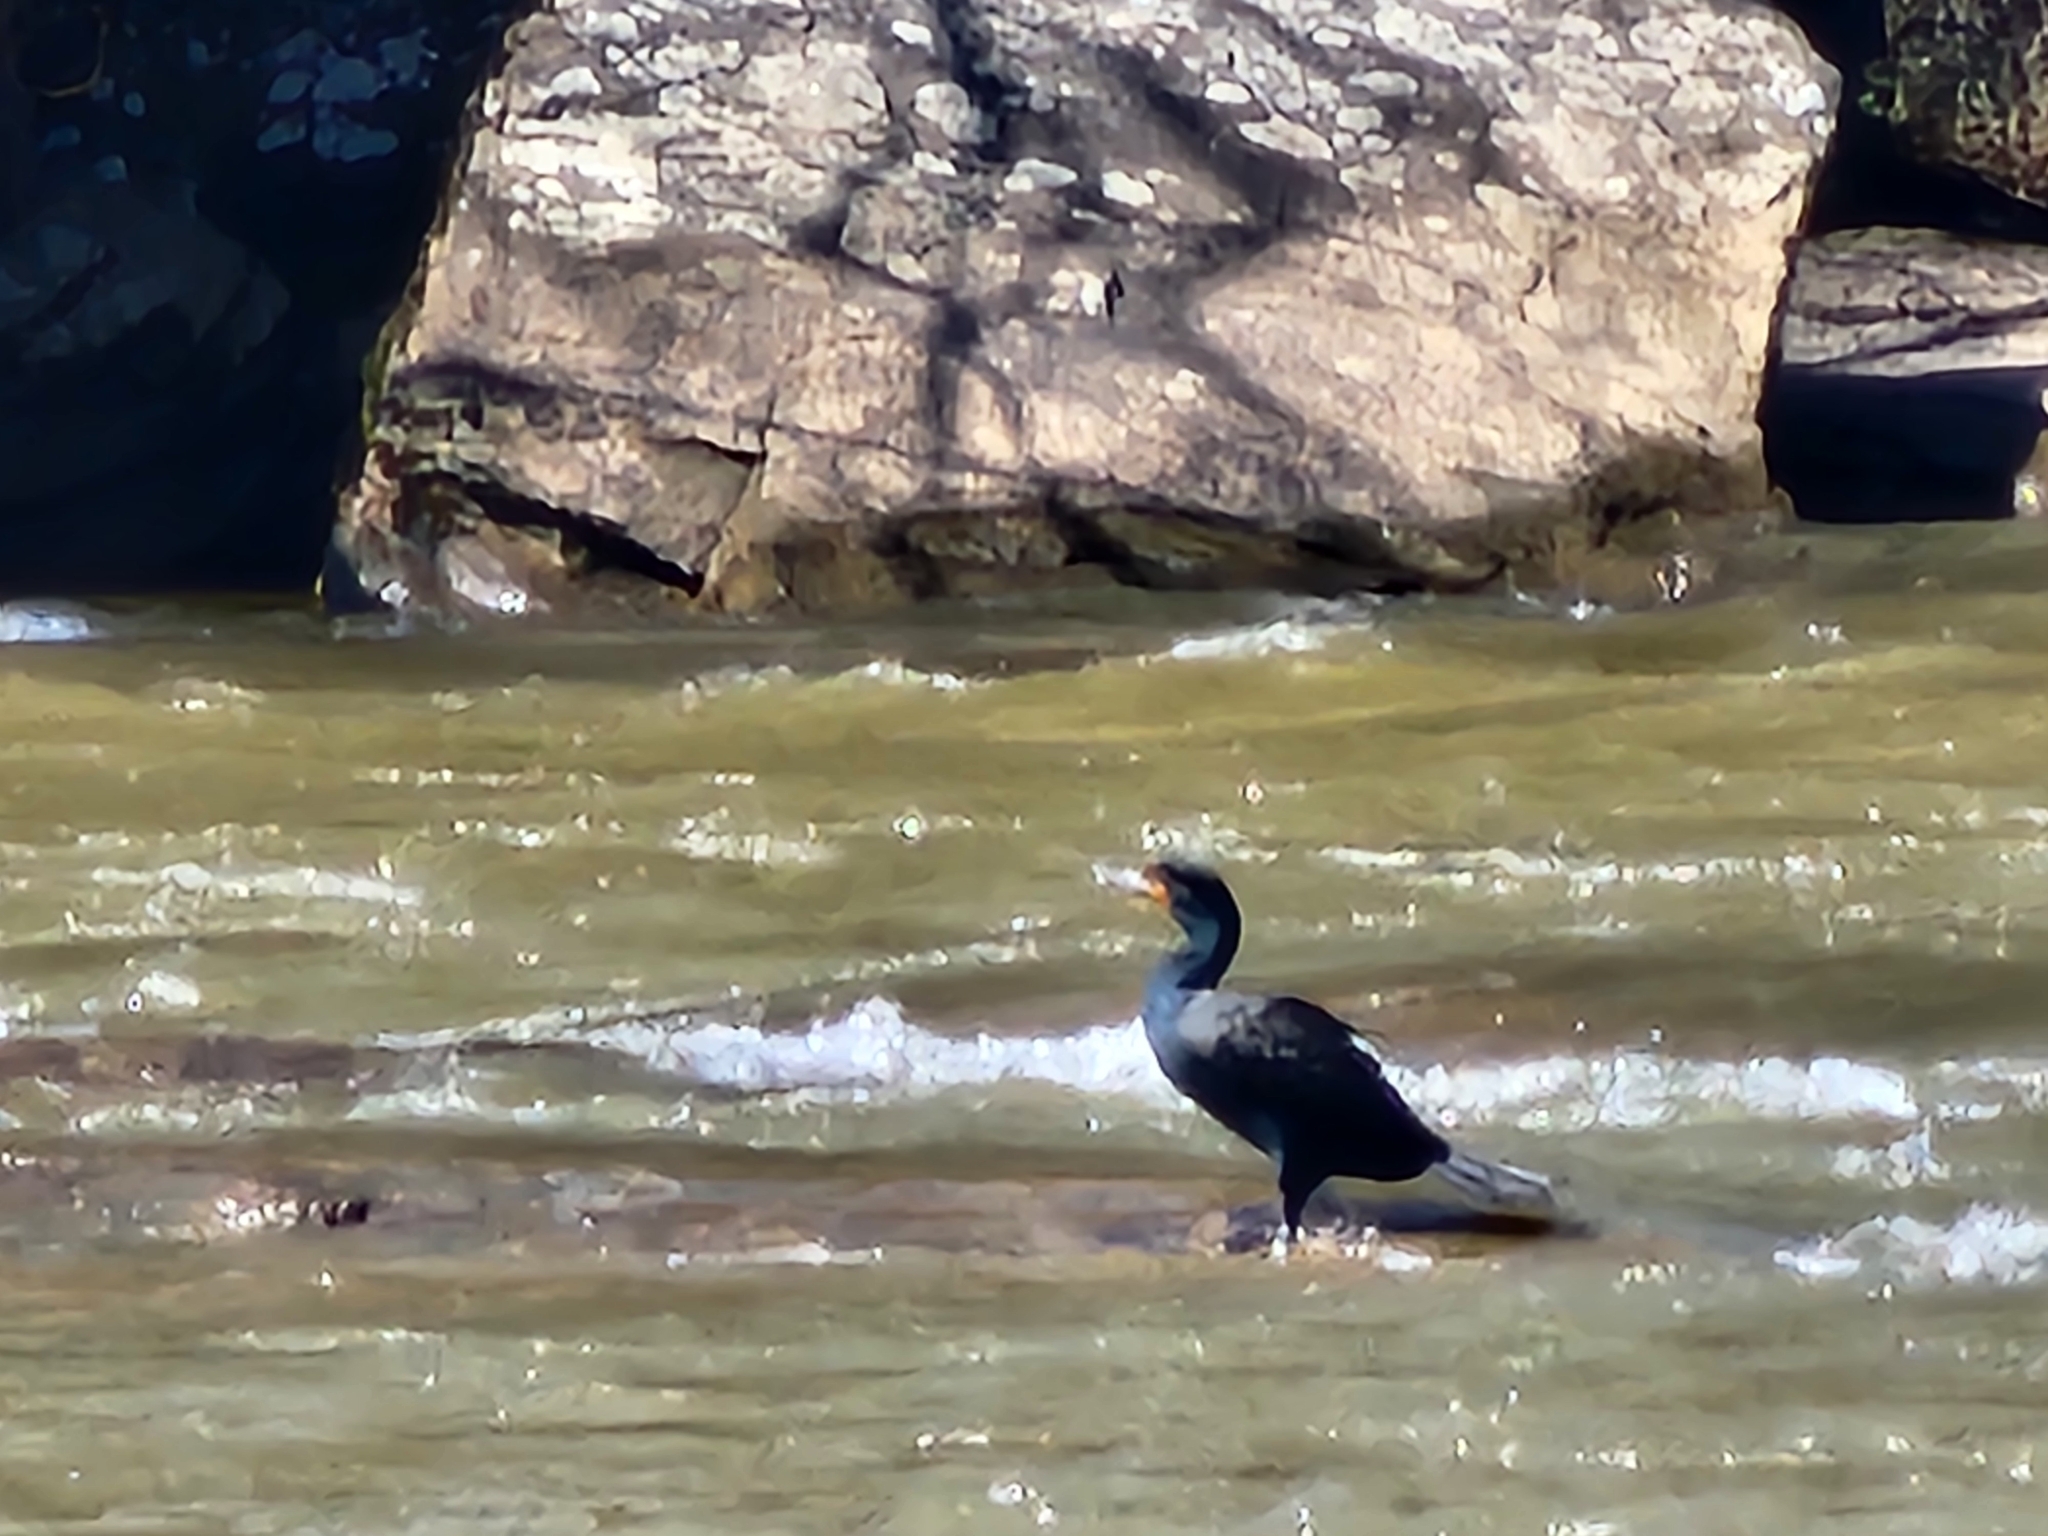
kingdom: Animalia
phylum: Chordata
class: Aves
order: Suliformes
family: Phalacrocoracidae
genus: Phalacrocorax
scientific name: Phalacrocorax auritus
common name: Double-crested cormorant
